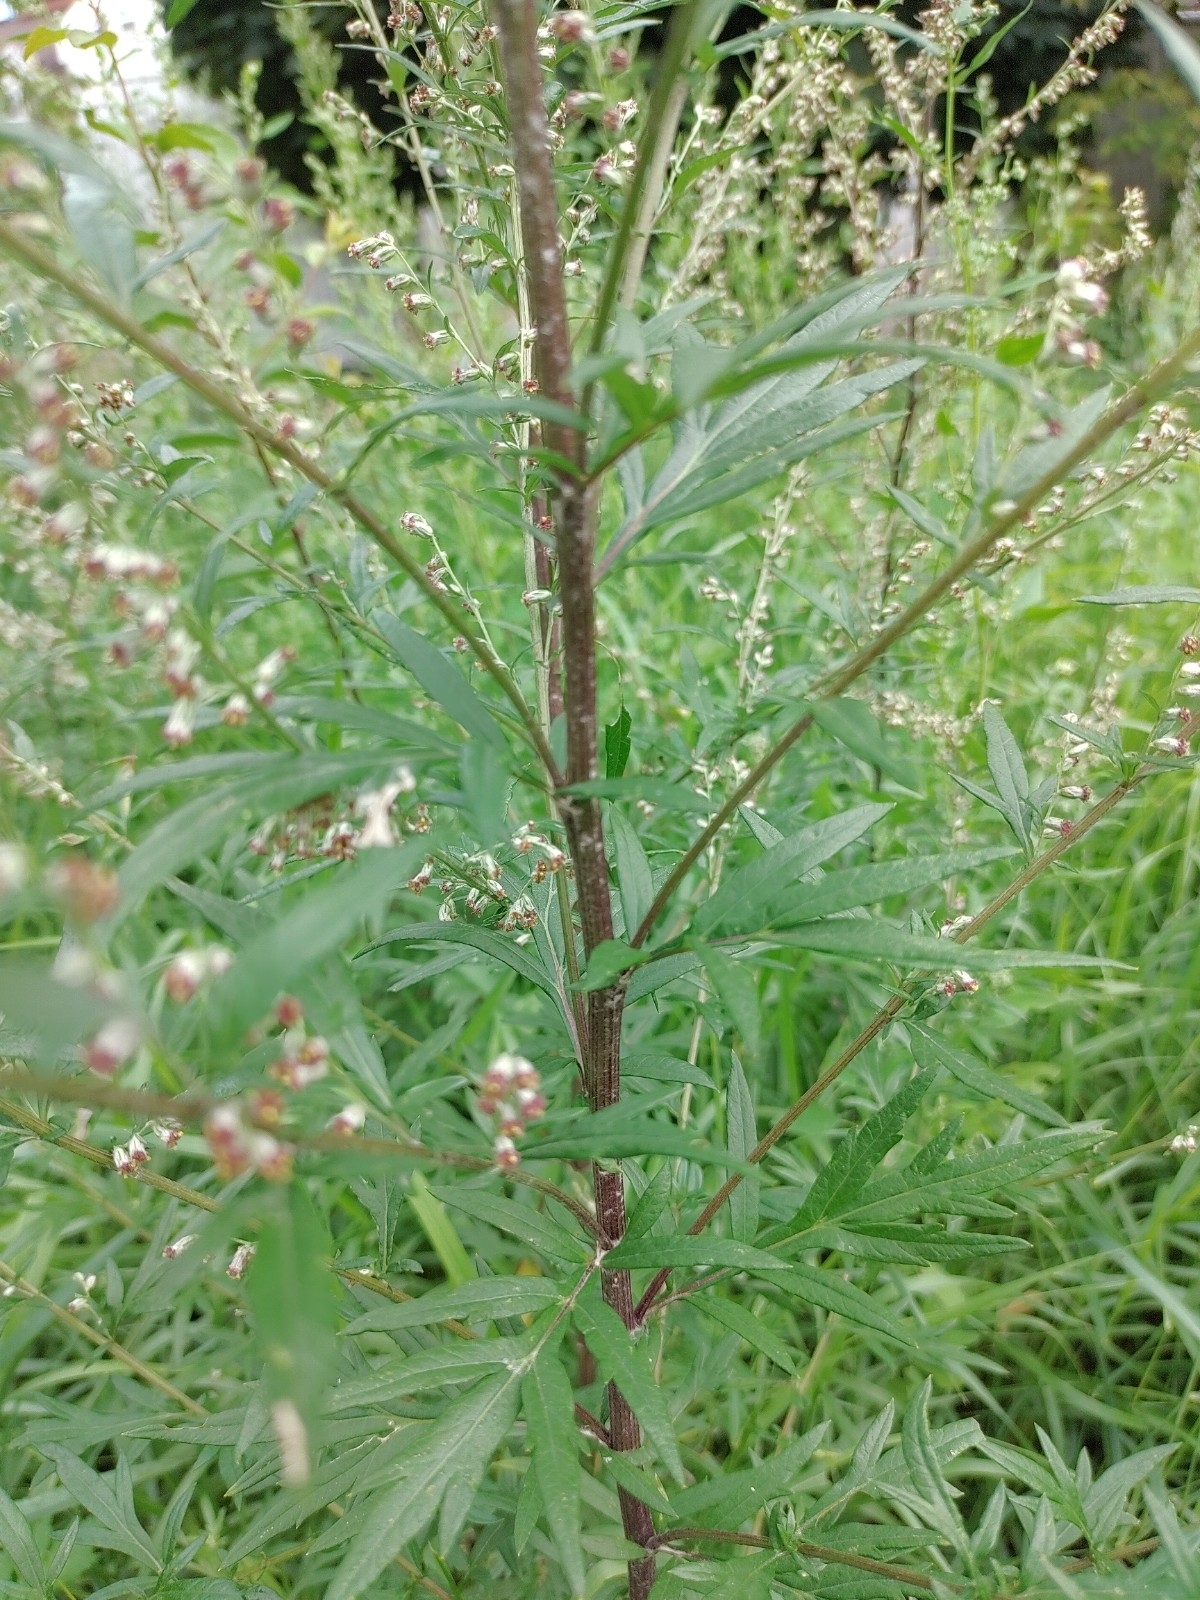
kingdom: Plantae
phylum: Tracheophyta
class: Magnoliopsida
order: Asterales
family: Asteraceae
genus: Artemisia
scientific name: Artemisia vulgaris
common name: Mugwort
